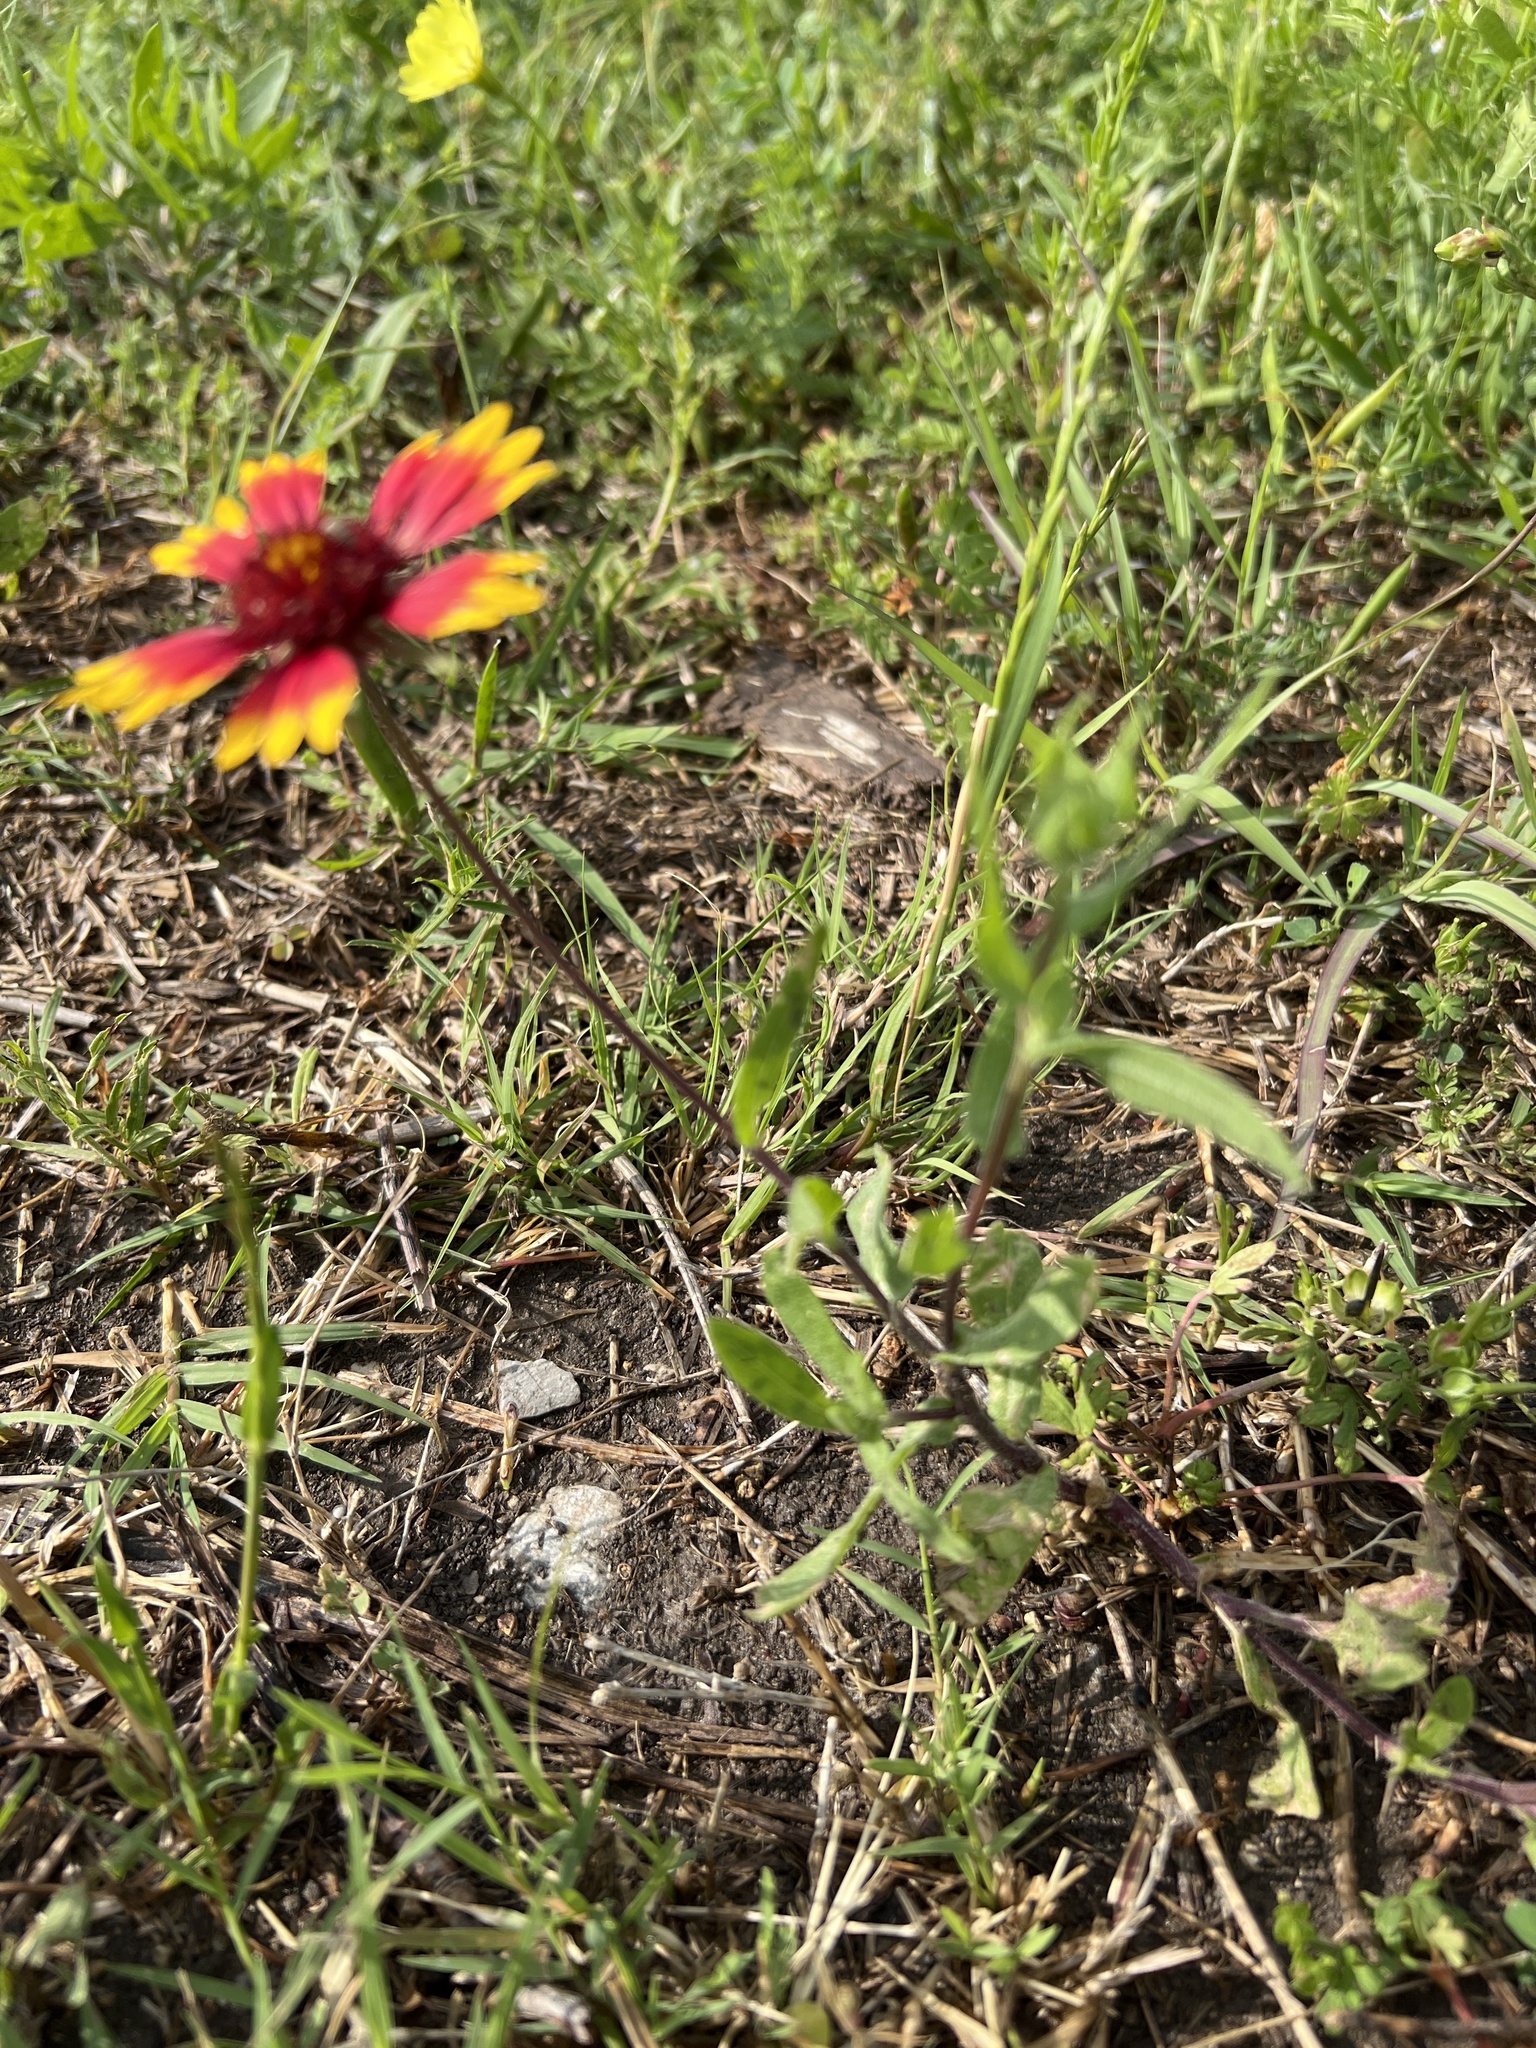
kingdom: Plantae
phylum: Tracheophyta
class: Magnoliopsida
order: Asterales
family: Asteraceae
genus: Gaillardia
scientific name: Gaillardia pulchella
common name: Firewheel
